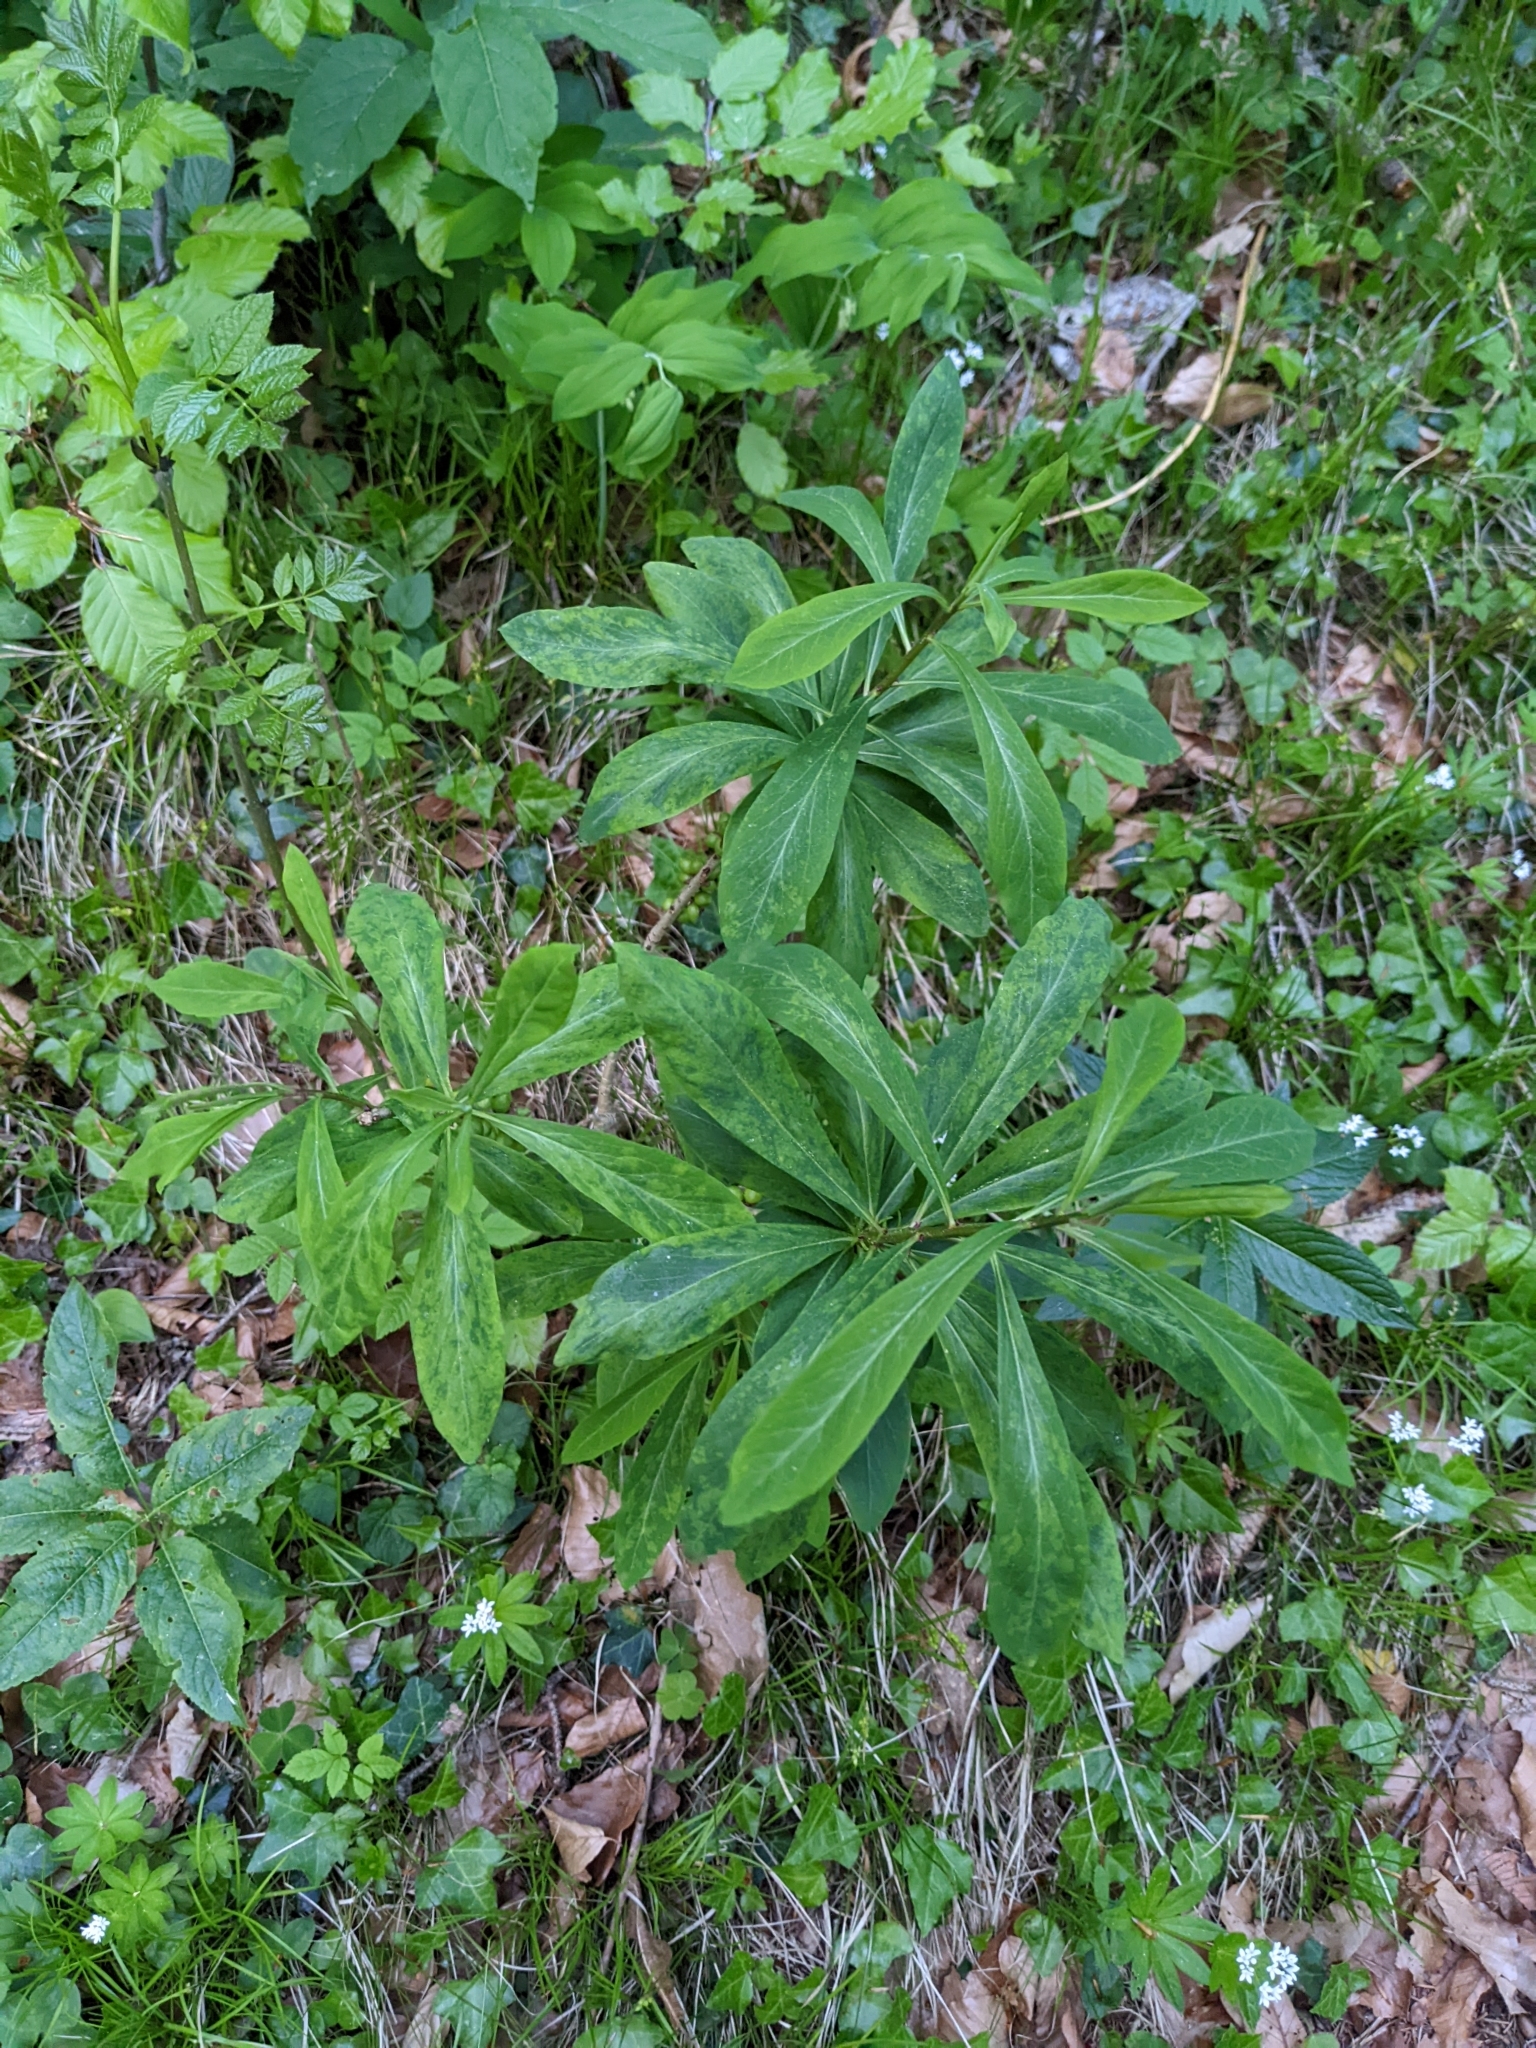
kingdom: Plantae
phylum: Tracheophyta
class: Magnoliopsida
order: Malvales
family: Thymelaeaceae
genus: Daphne
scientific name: Daphne mezereum
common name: Mezereon
